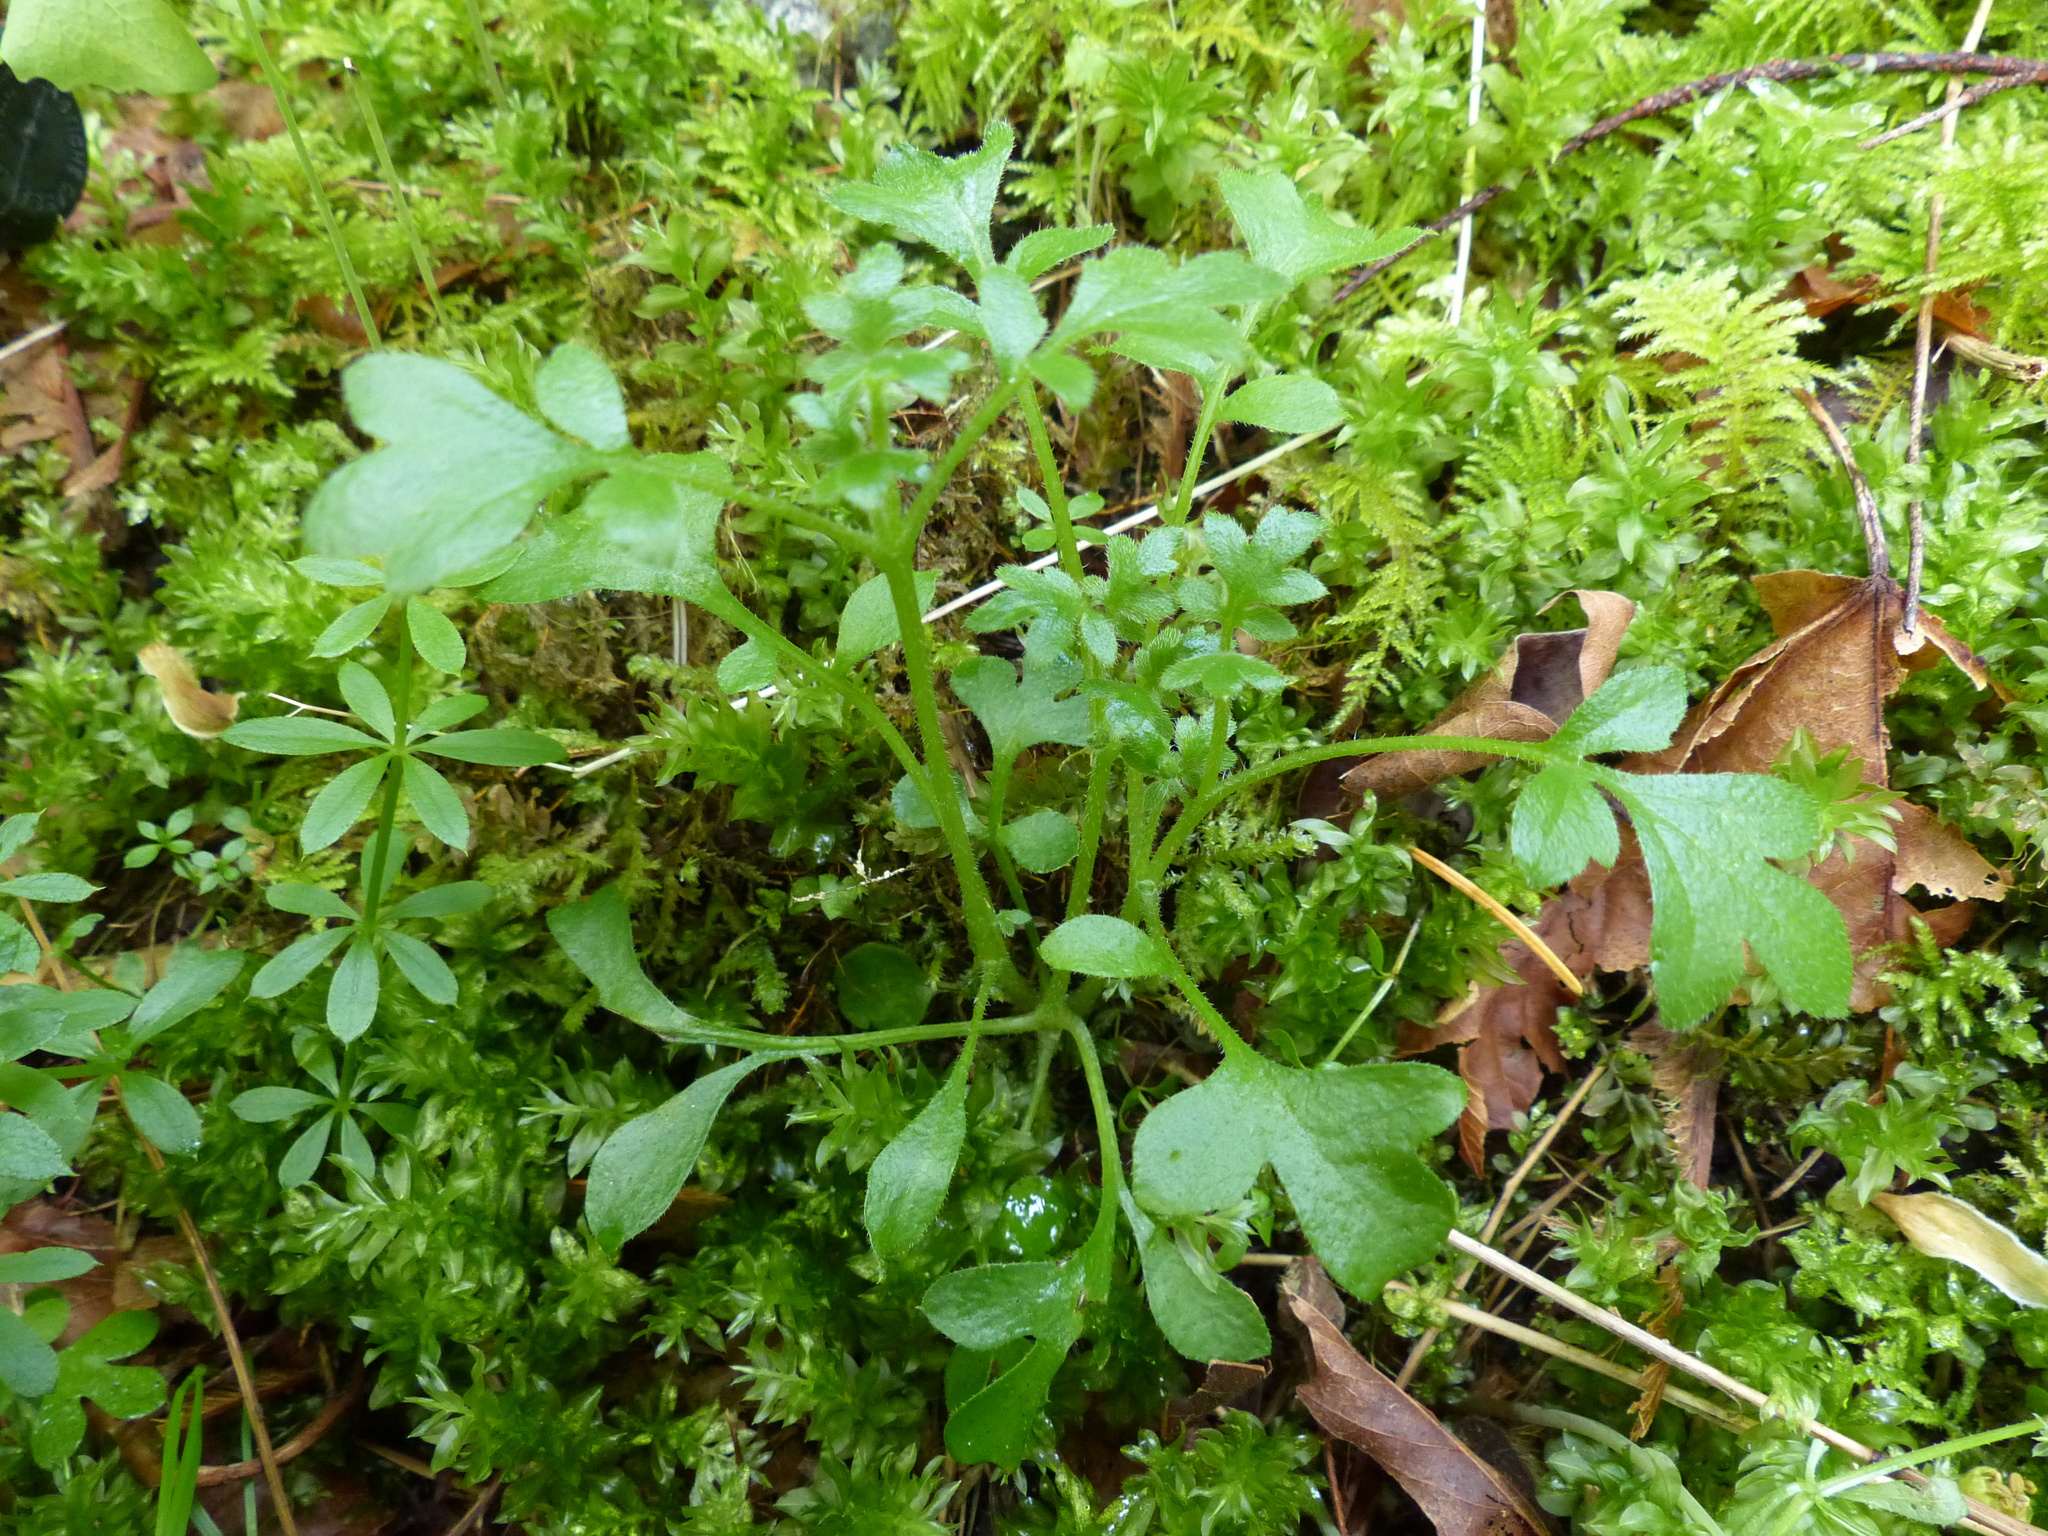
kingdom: Plantae
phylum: Tracheophyta
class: Magnoliopsida
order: Boraginales
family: Hydrophyllaceae
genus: Nemophila
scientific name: Nemophila parviflora
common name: Small-flowered baby-blue-eyes
